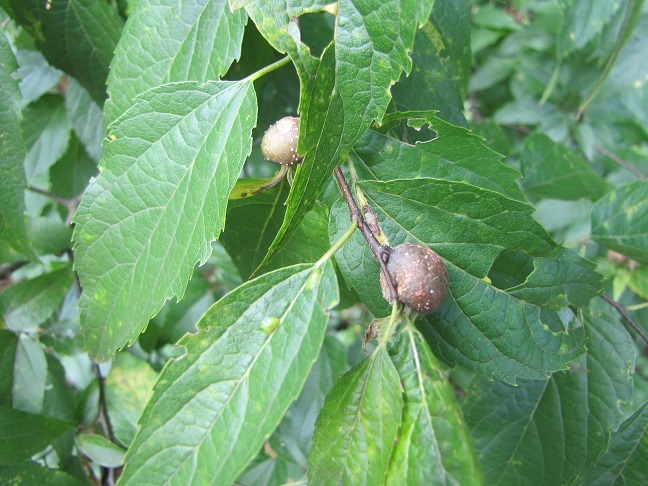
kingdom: Animalia
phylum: Arthropoda
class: Insecta
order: Hemiptera
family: Aphalaridae
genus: Pachypsylla
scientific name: Pachypsylla venusta
